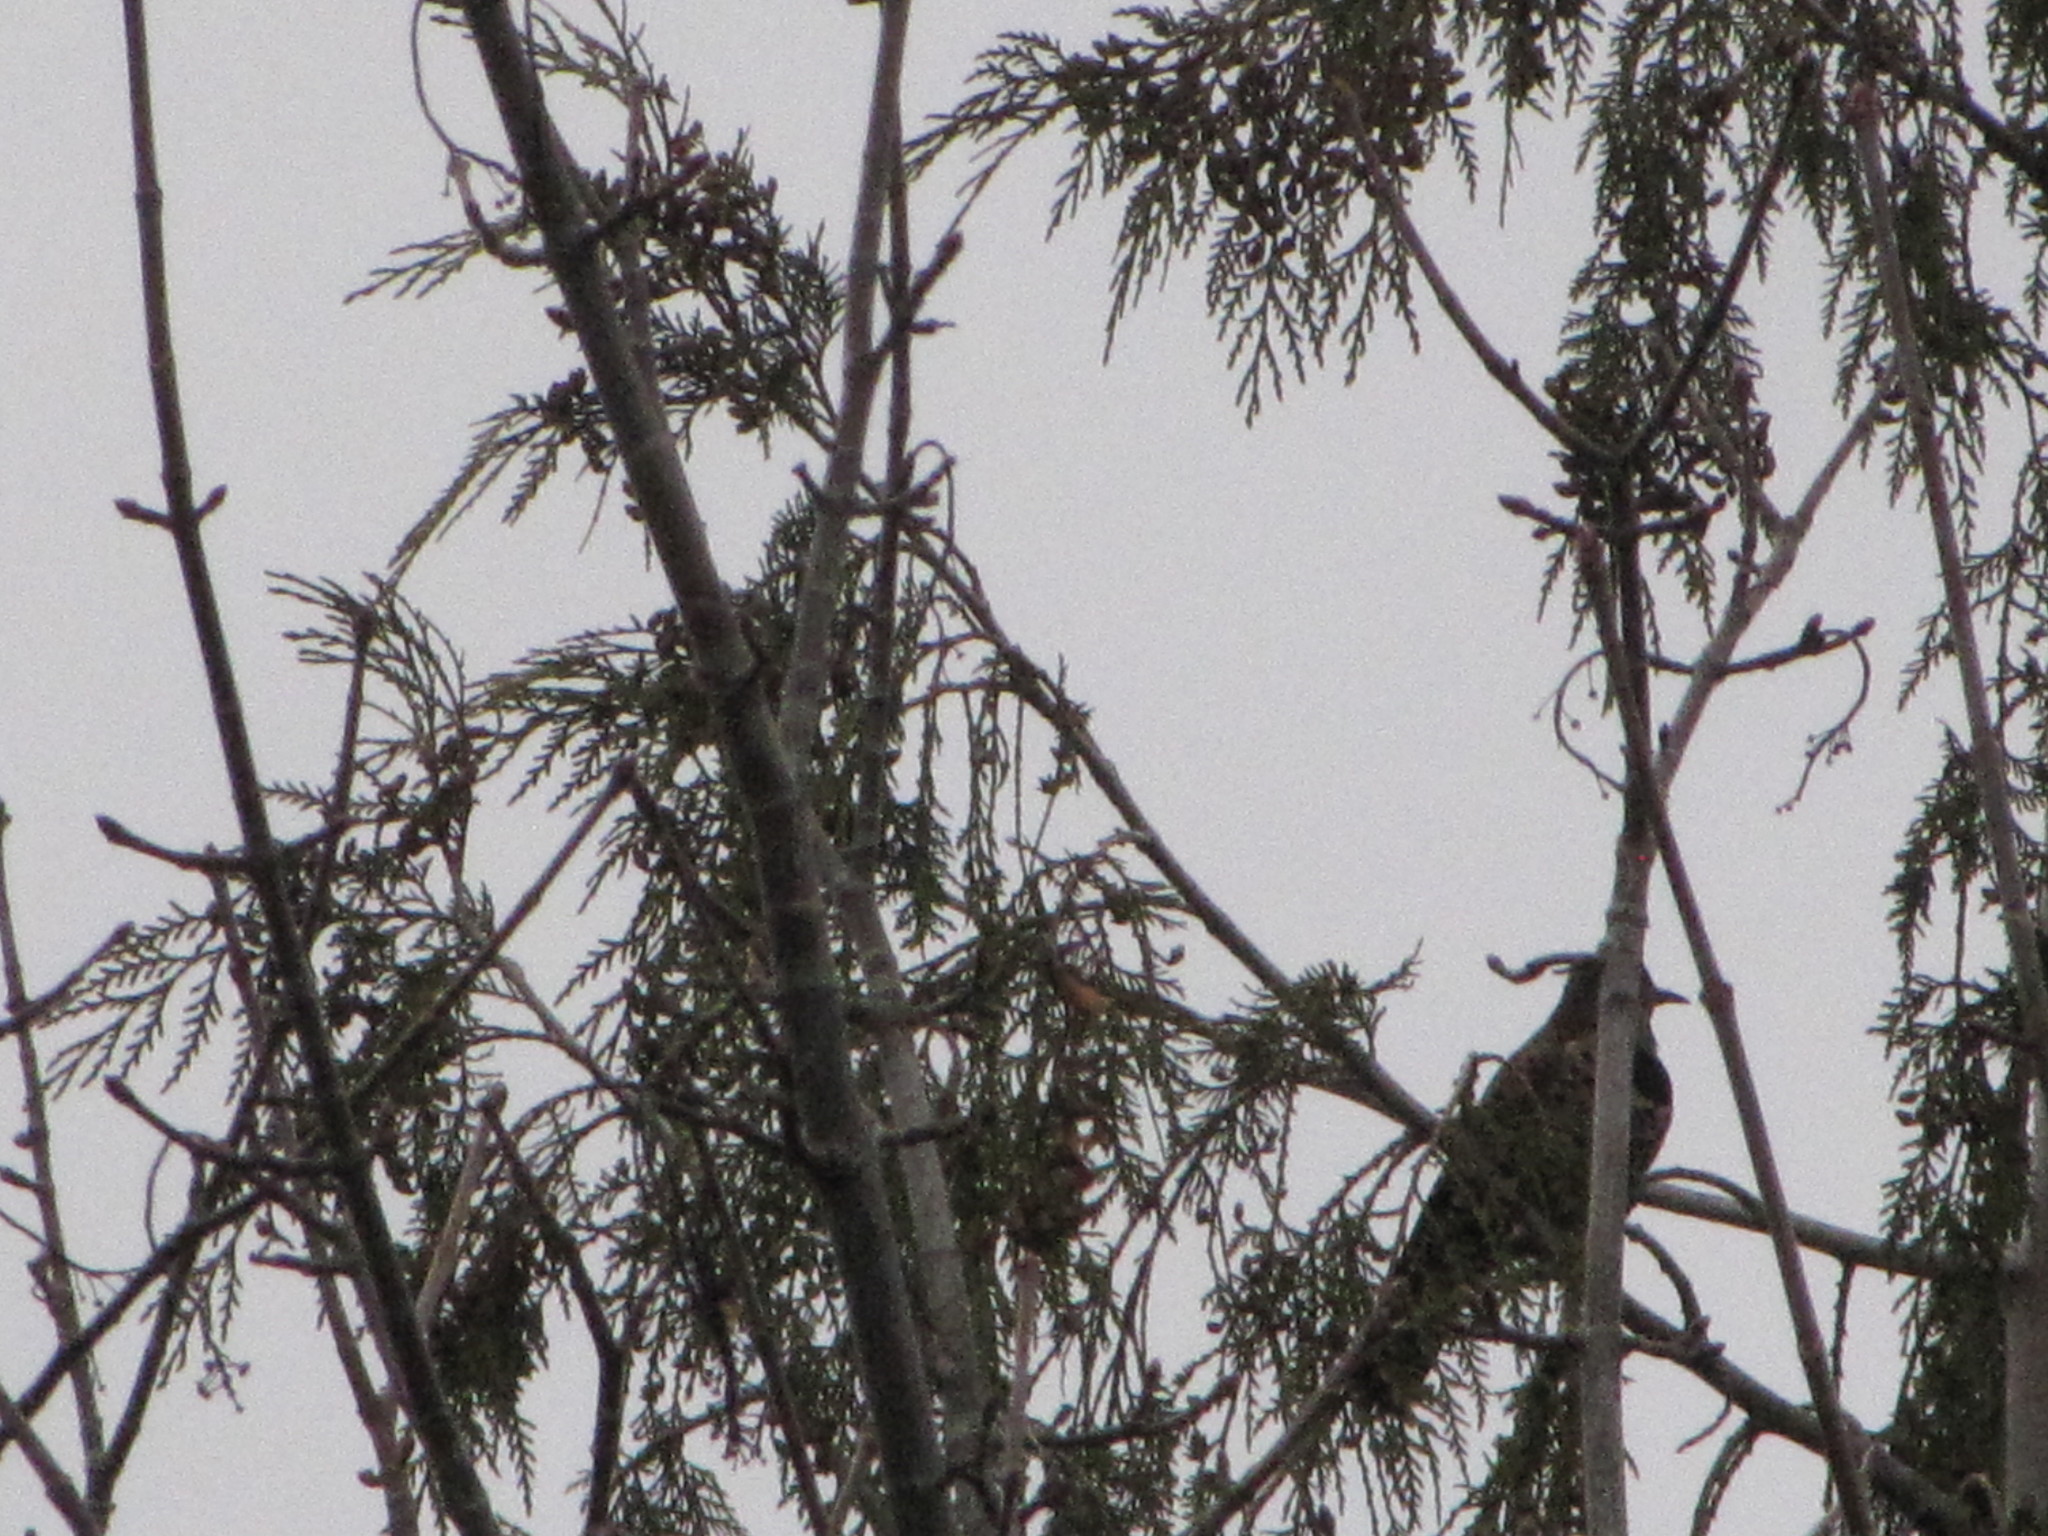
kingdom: Animalia
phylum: Chordata
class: Aves
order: Piciformes
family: Picidae
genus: Colaptes
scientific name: Colaptes auratus
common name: Northern flicker
